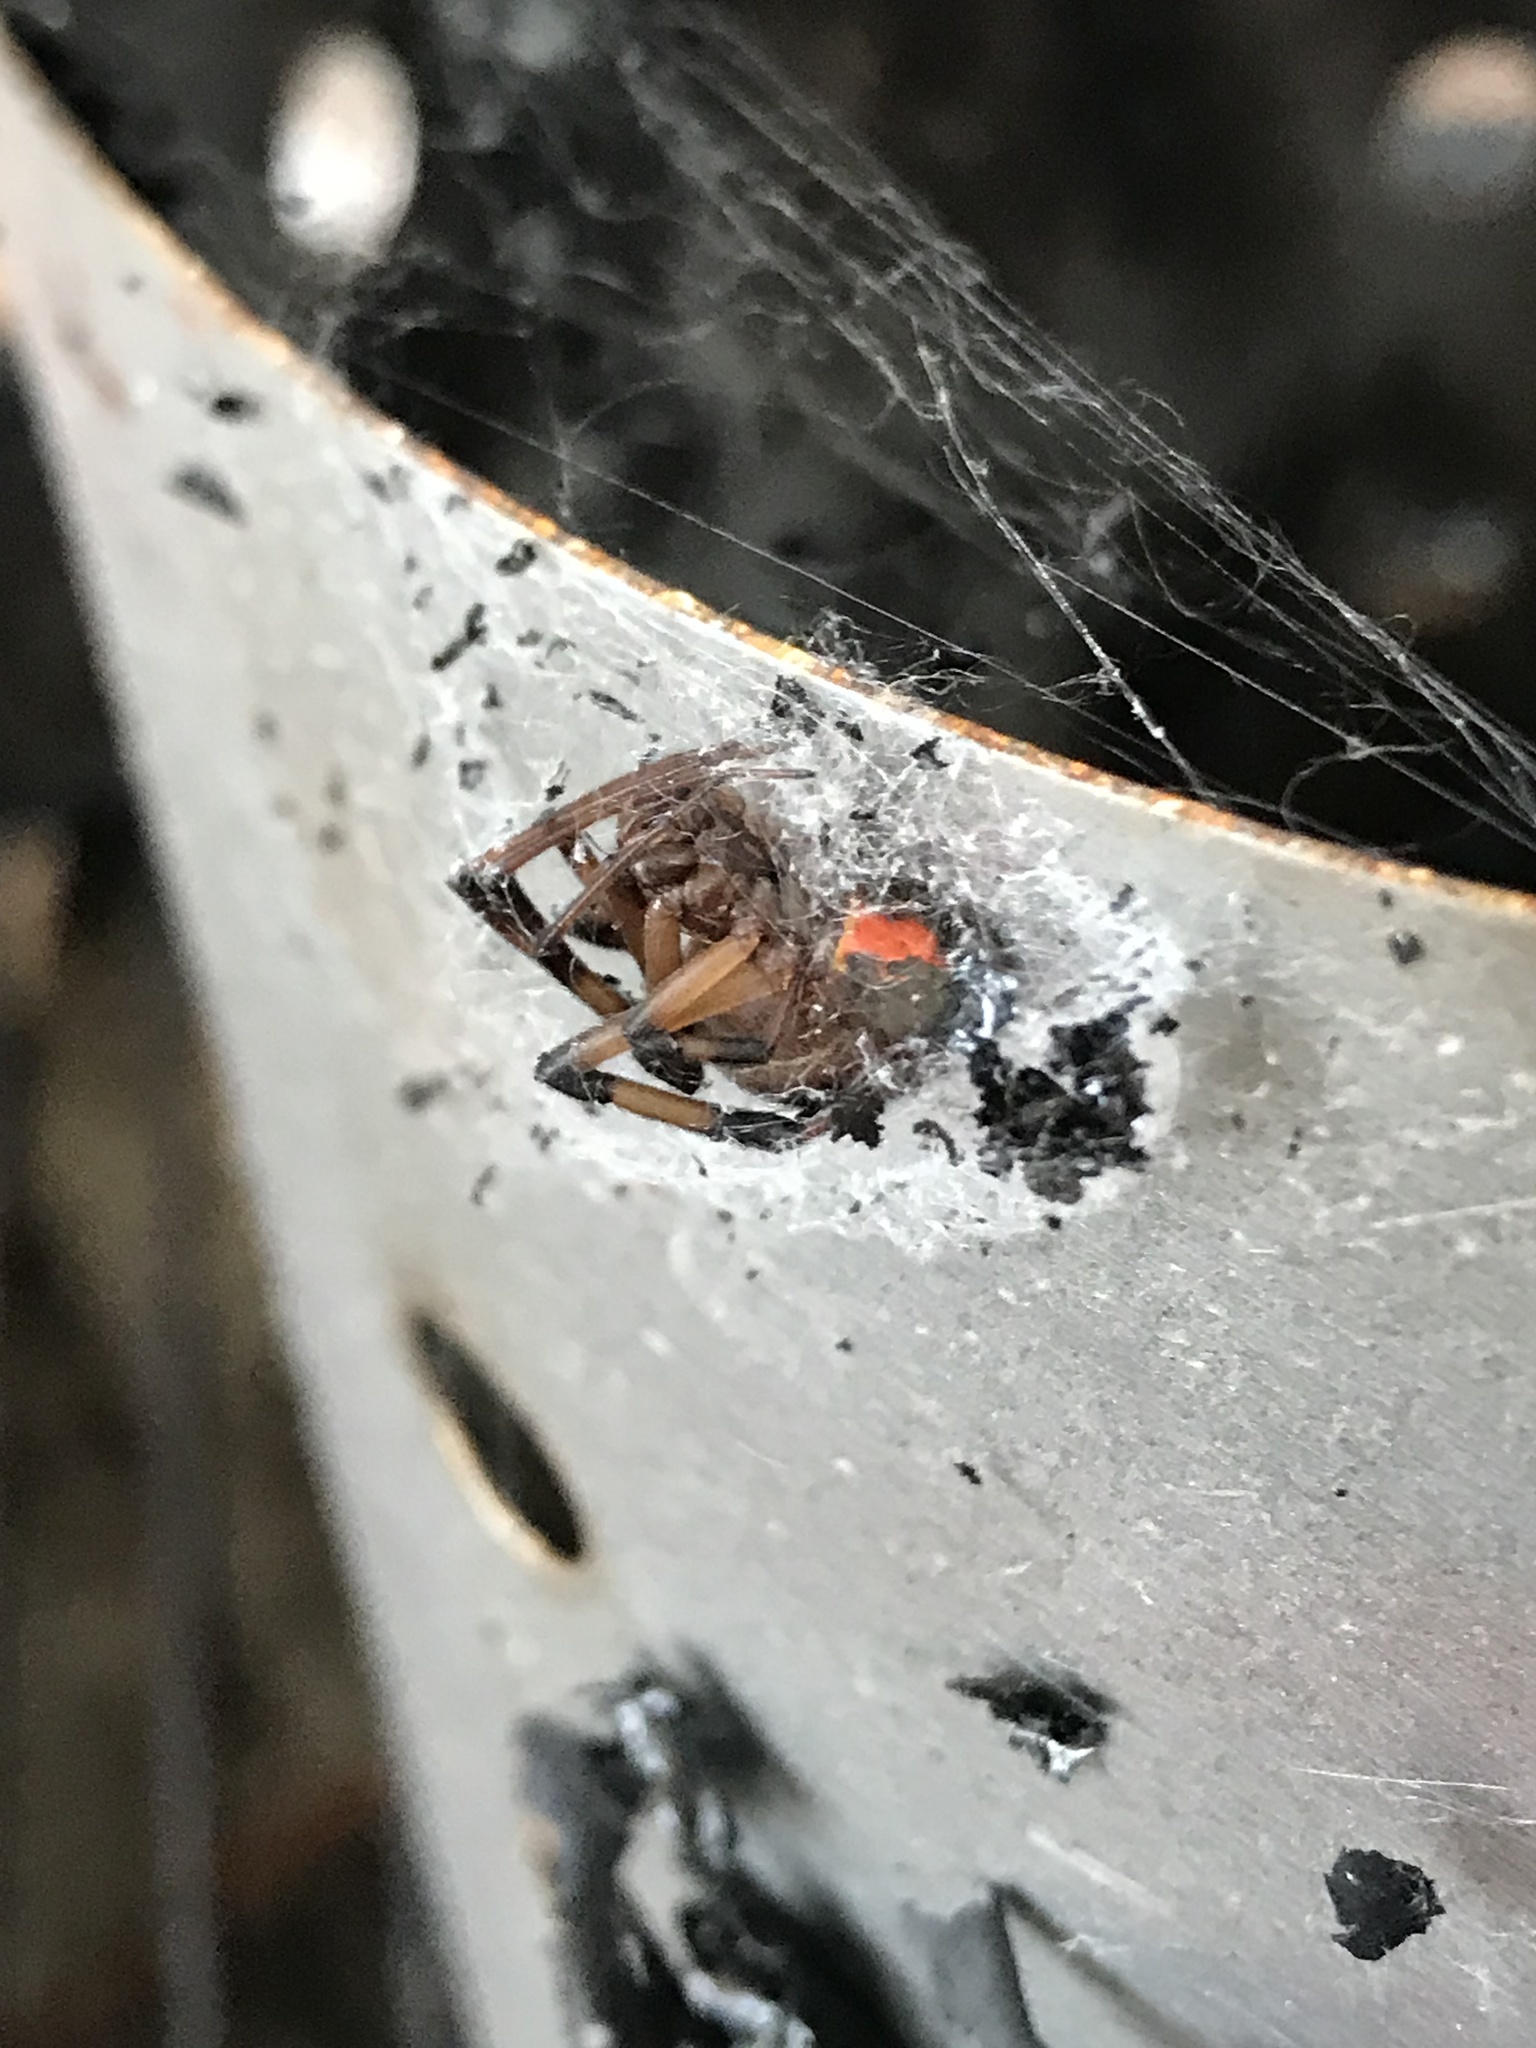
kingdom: Animalia
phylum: Arthropoda
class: Arachnida
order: Araneae
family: Theridiidae
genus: Latrodectus
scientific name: Latrodectus geometricus
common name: Brown widow spider
